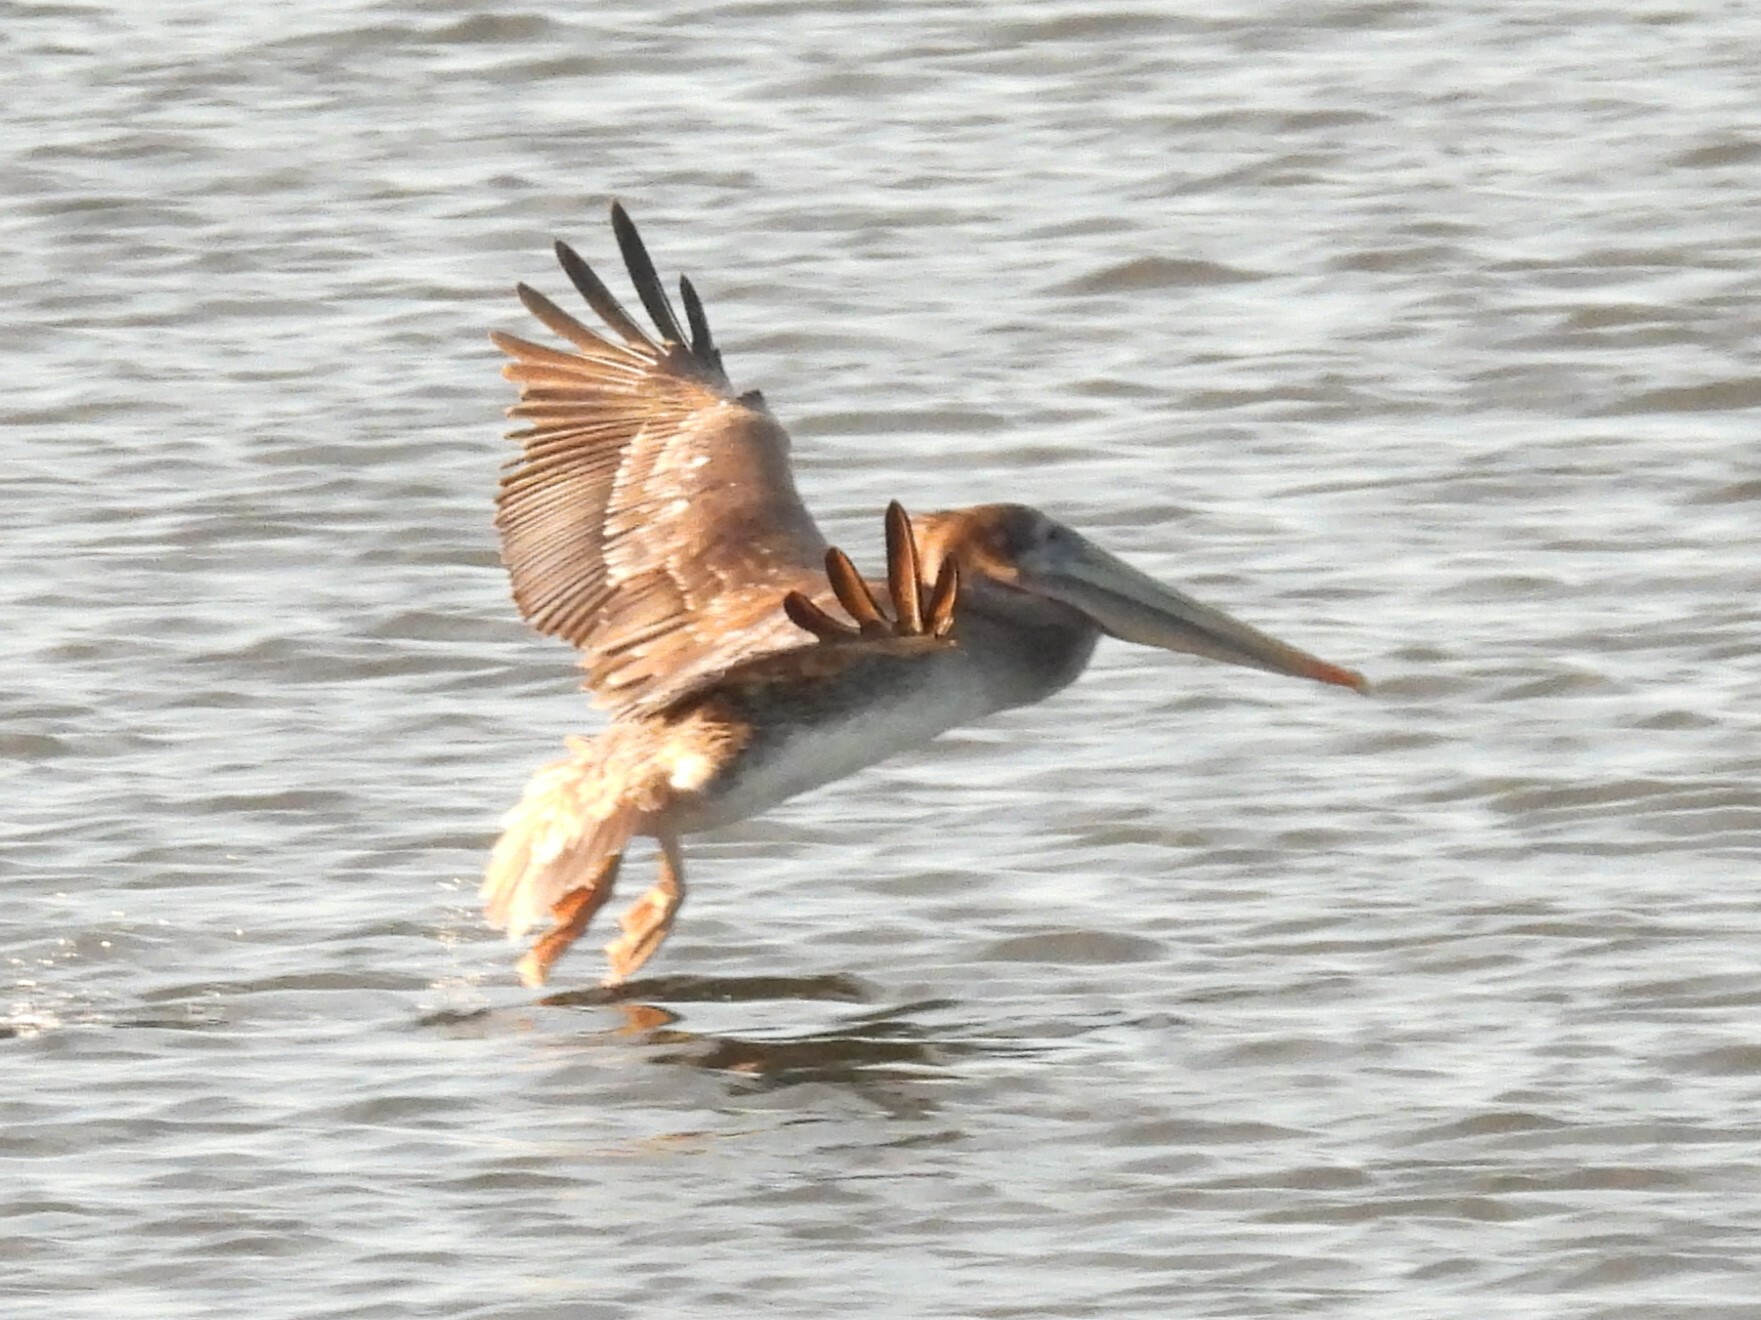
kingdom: Animalia
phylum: Chordata
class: Aves
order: Pelecaniformes
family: Pelecanidae
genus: Pelecanus
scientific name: Pelecanus occidentalis
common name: Brown pelican
